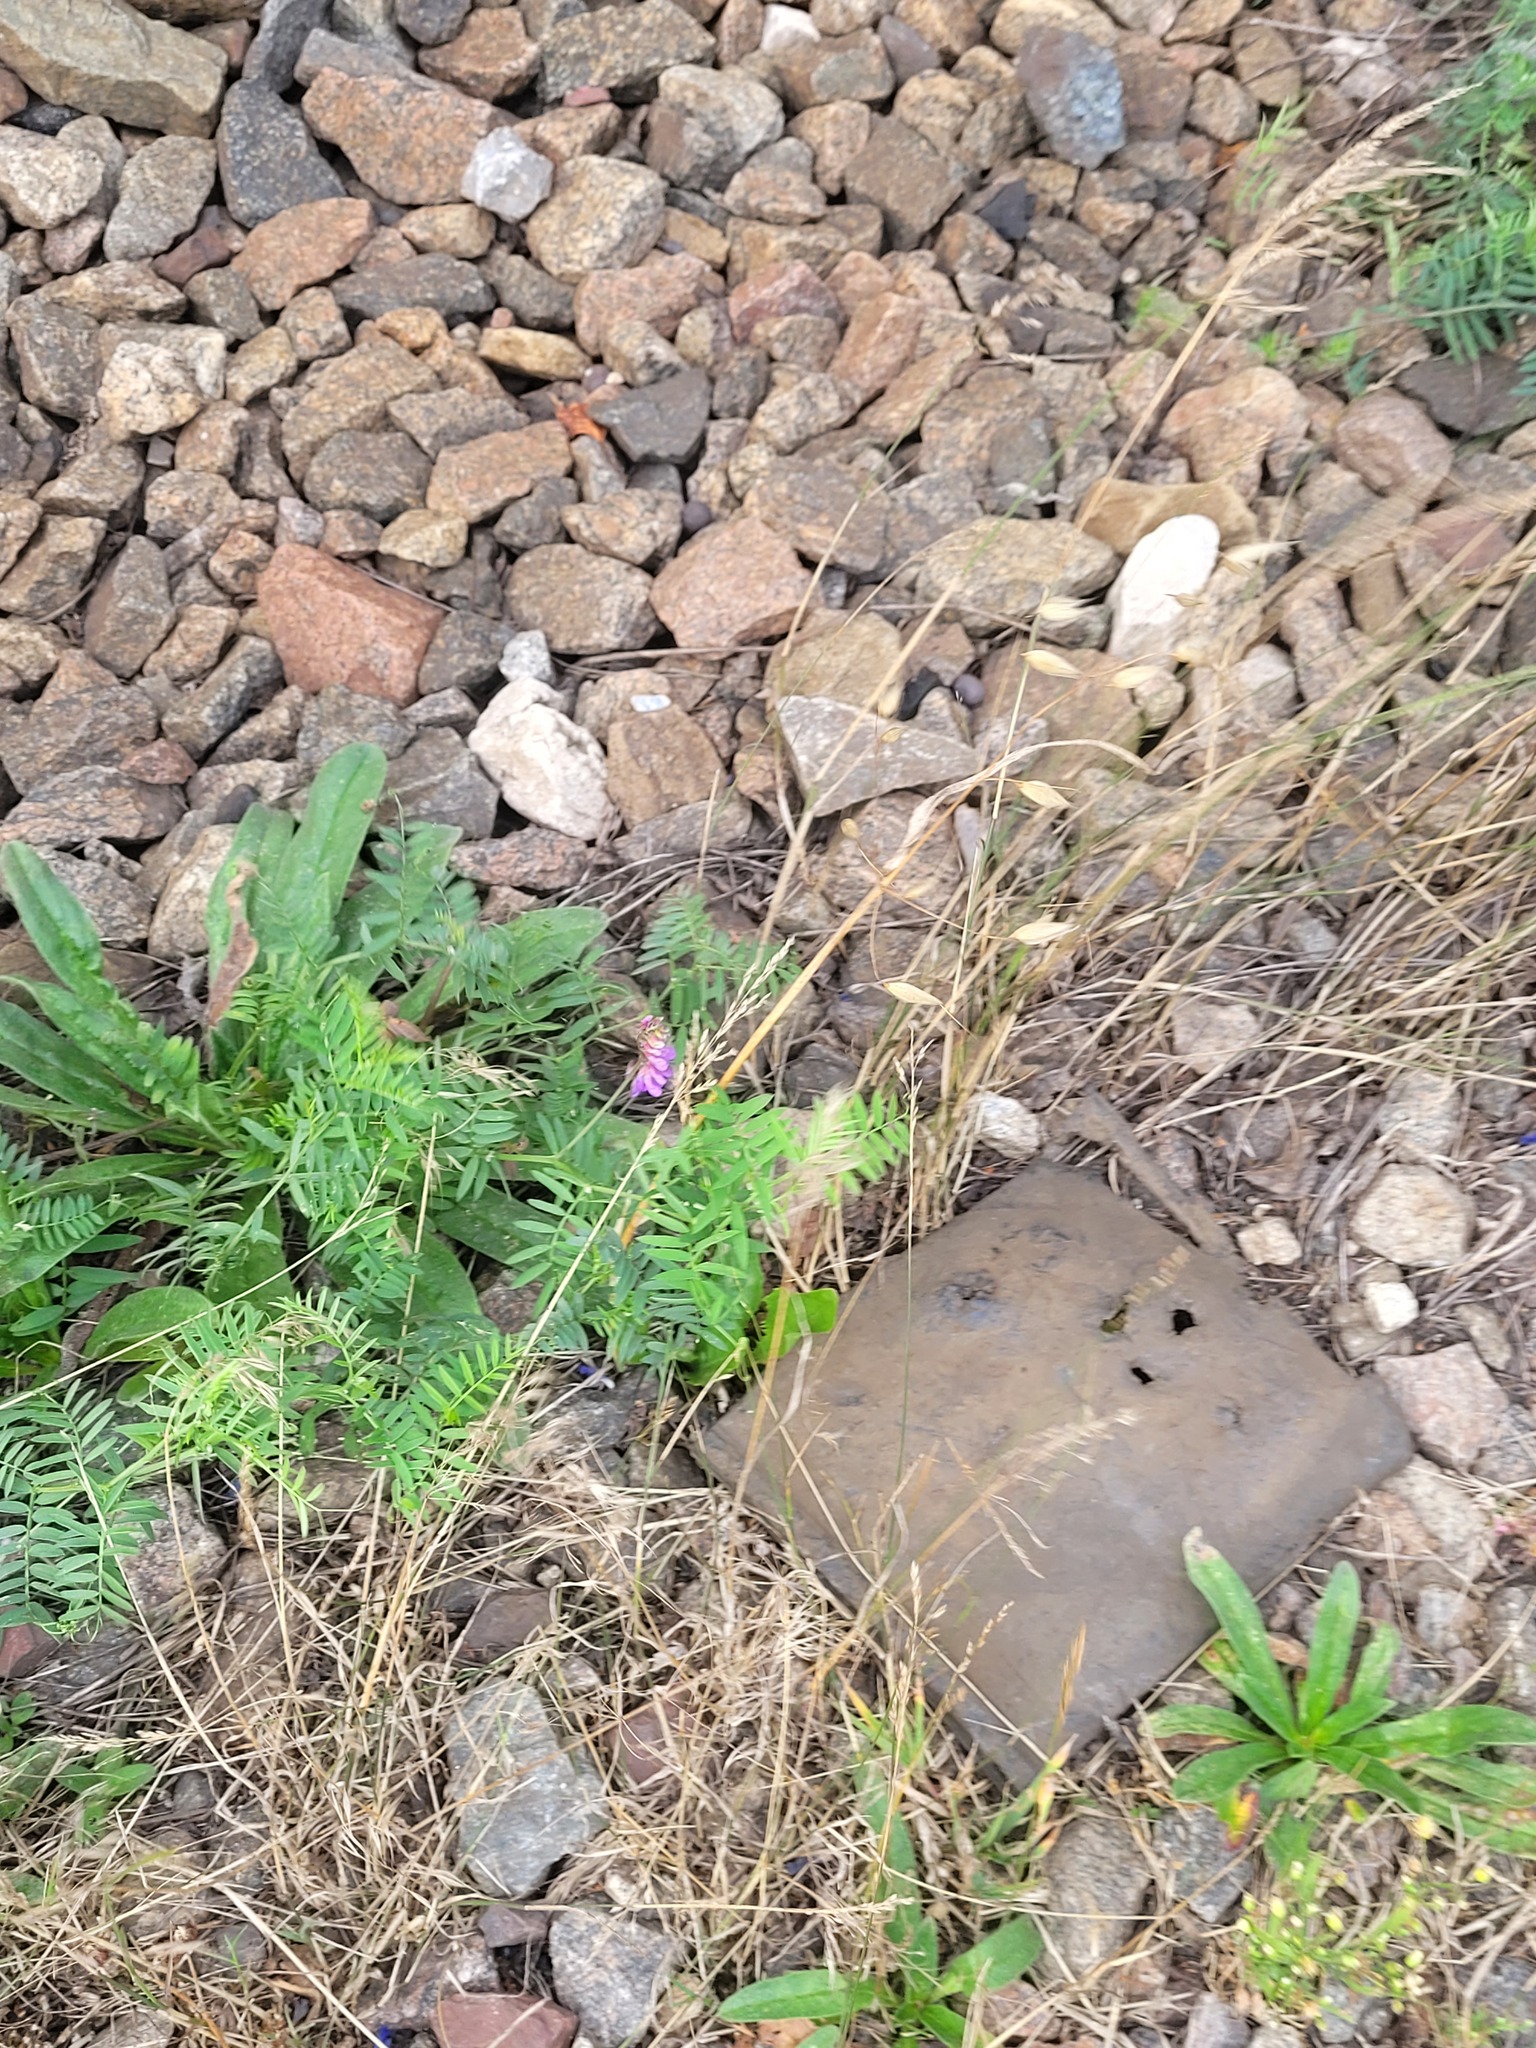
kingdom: Plantae
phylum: Tracheophyta
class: Magnoliopsida
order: Fabales
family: Fabaceae
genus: Vicia
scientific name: Vicia cracca
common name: Bird vetch
